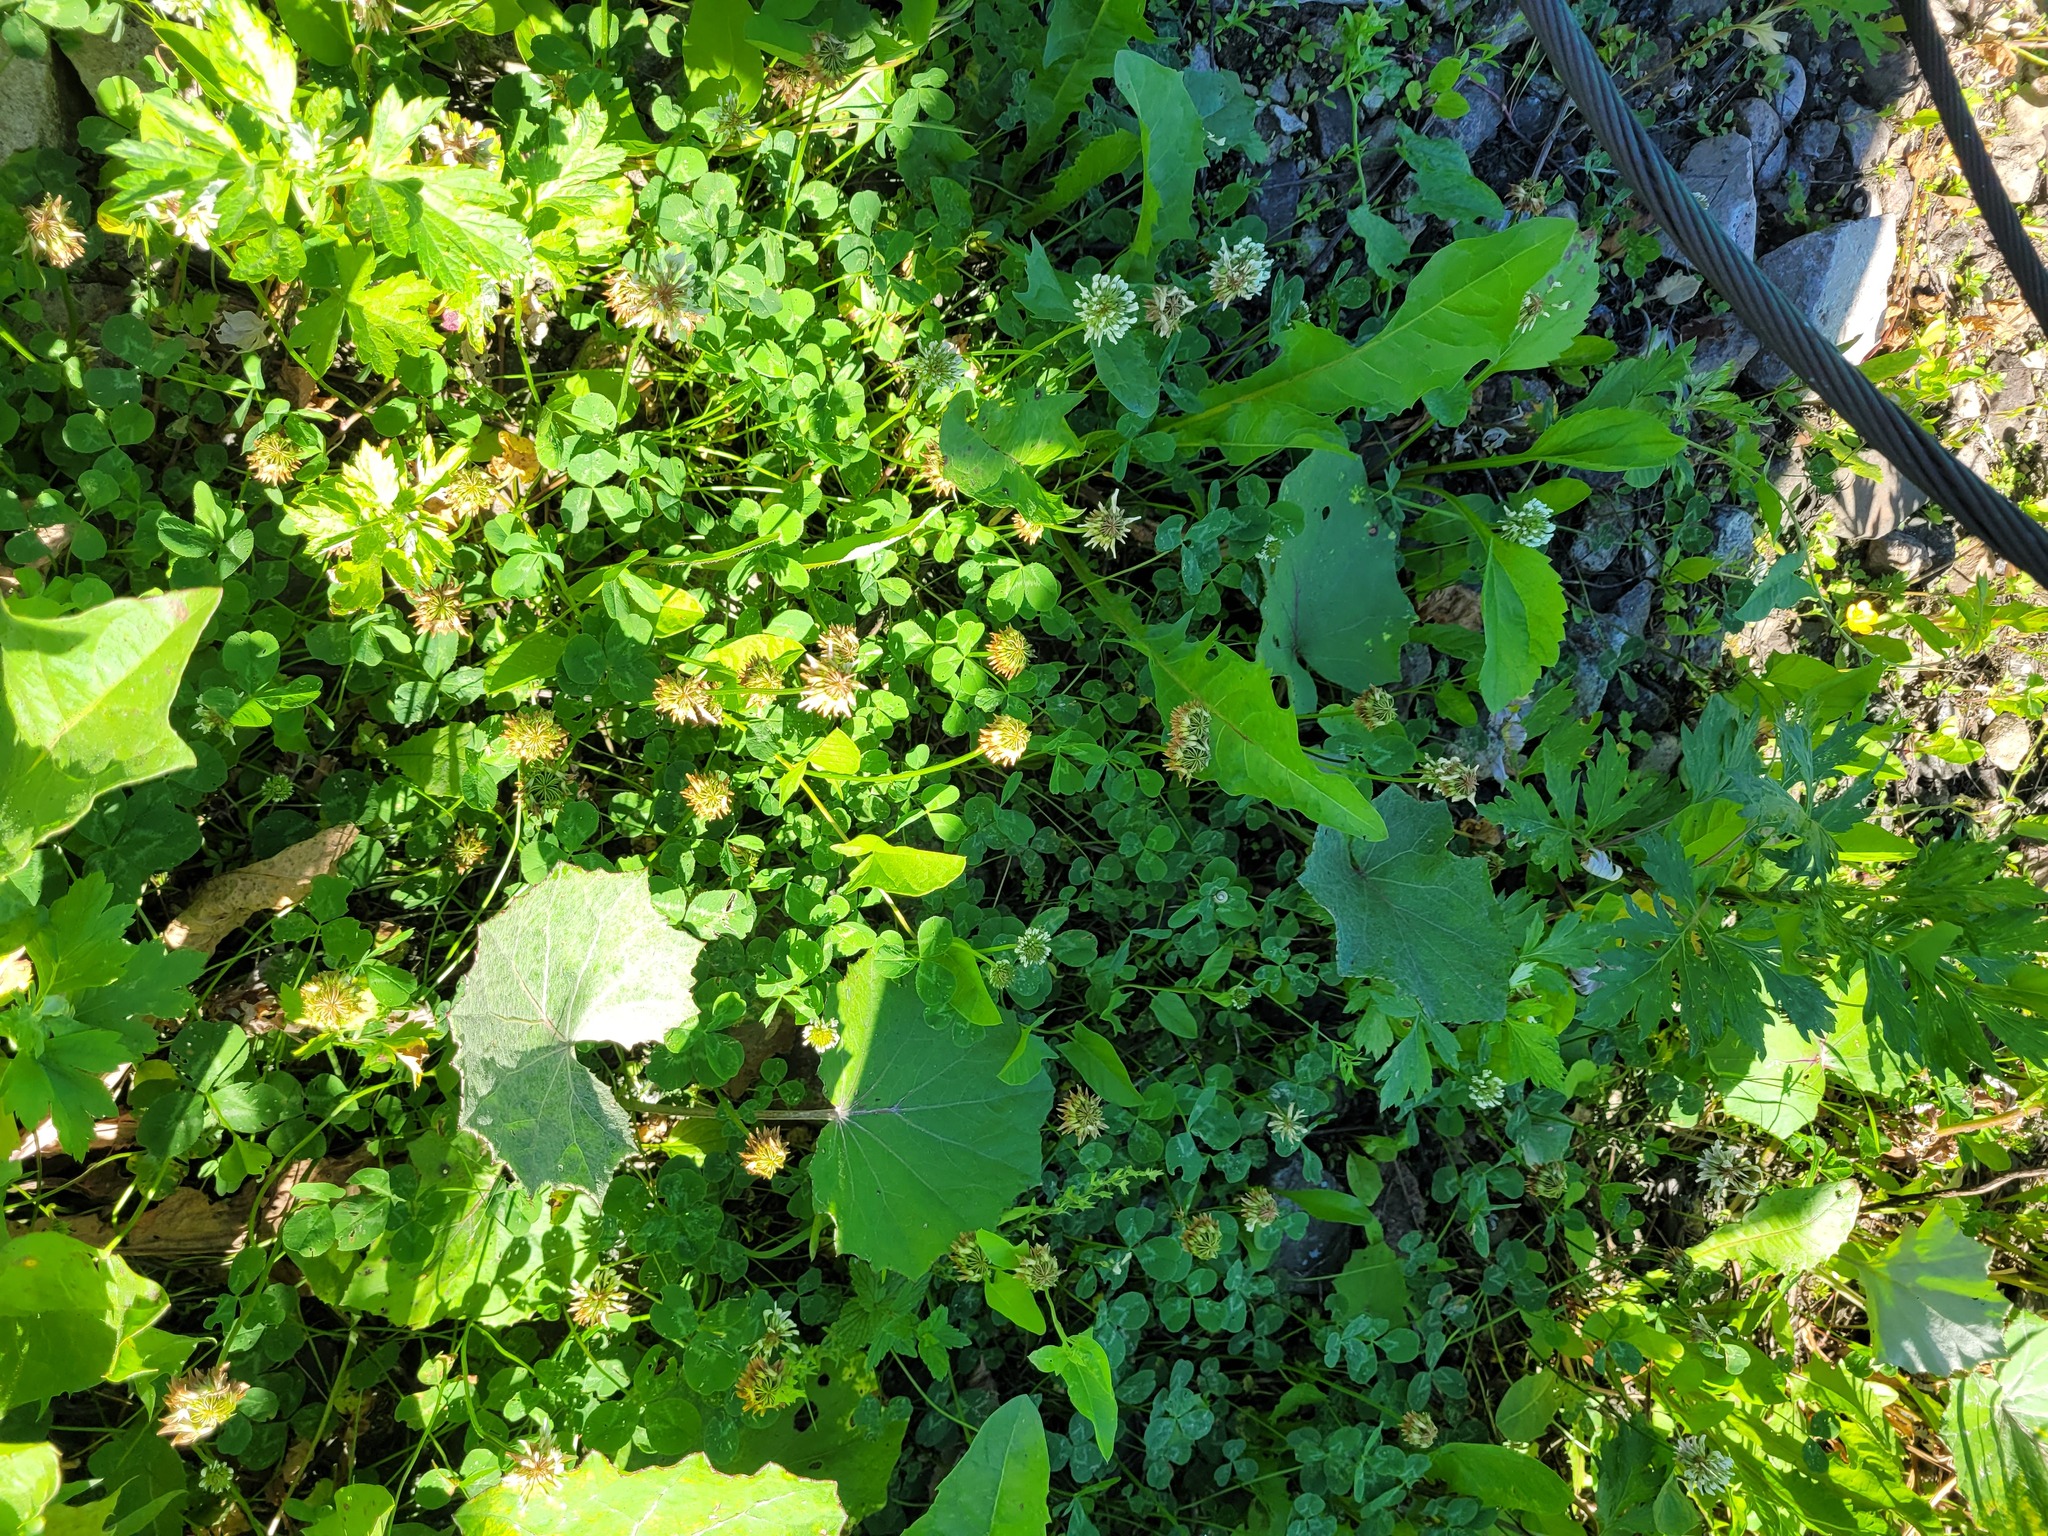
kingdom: Plantae
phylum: Tracheophyta
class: Magnoliopsida
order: Fabales
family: Fabaceae
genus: Trifolium
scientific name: Trifolium repens
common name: White clover
